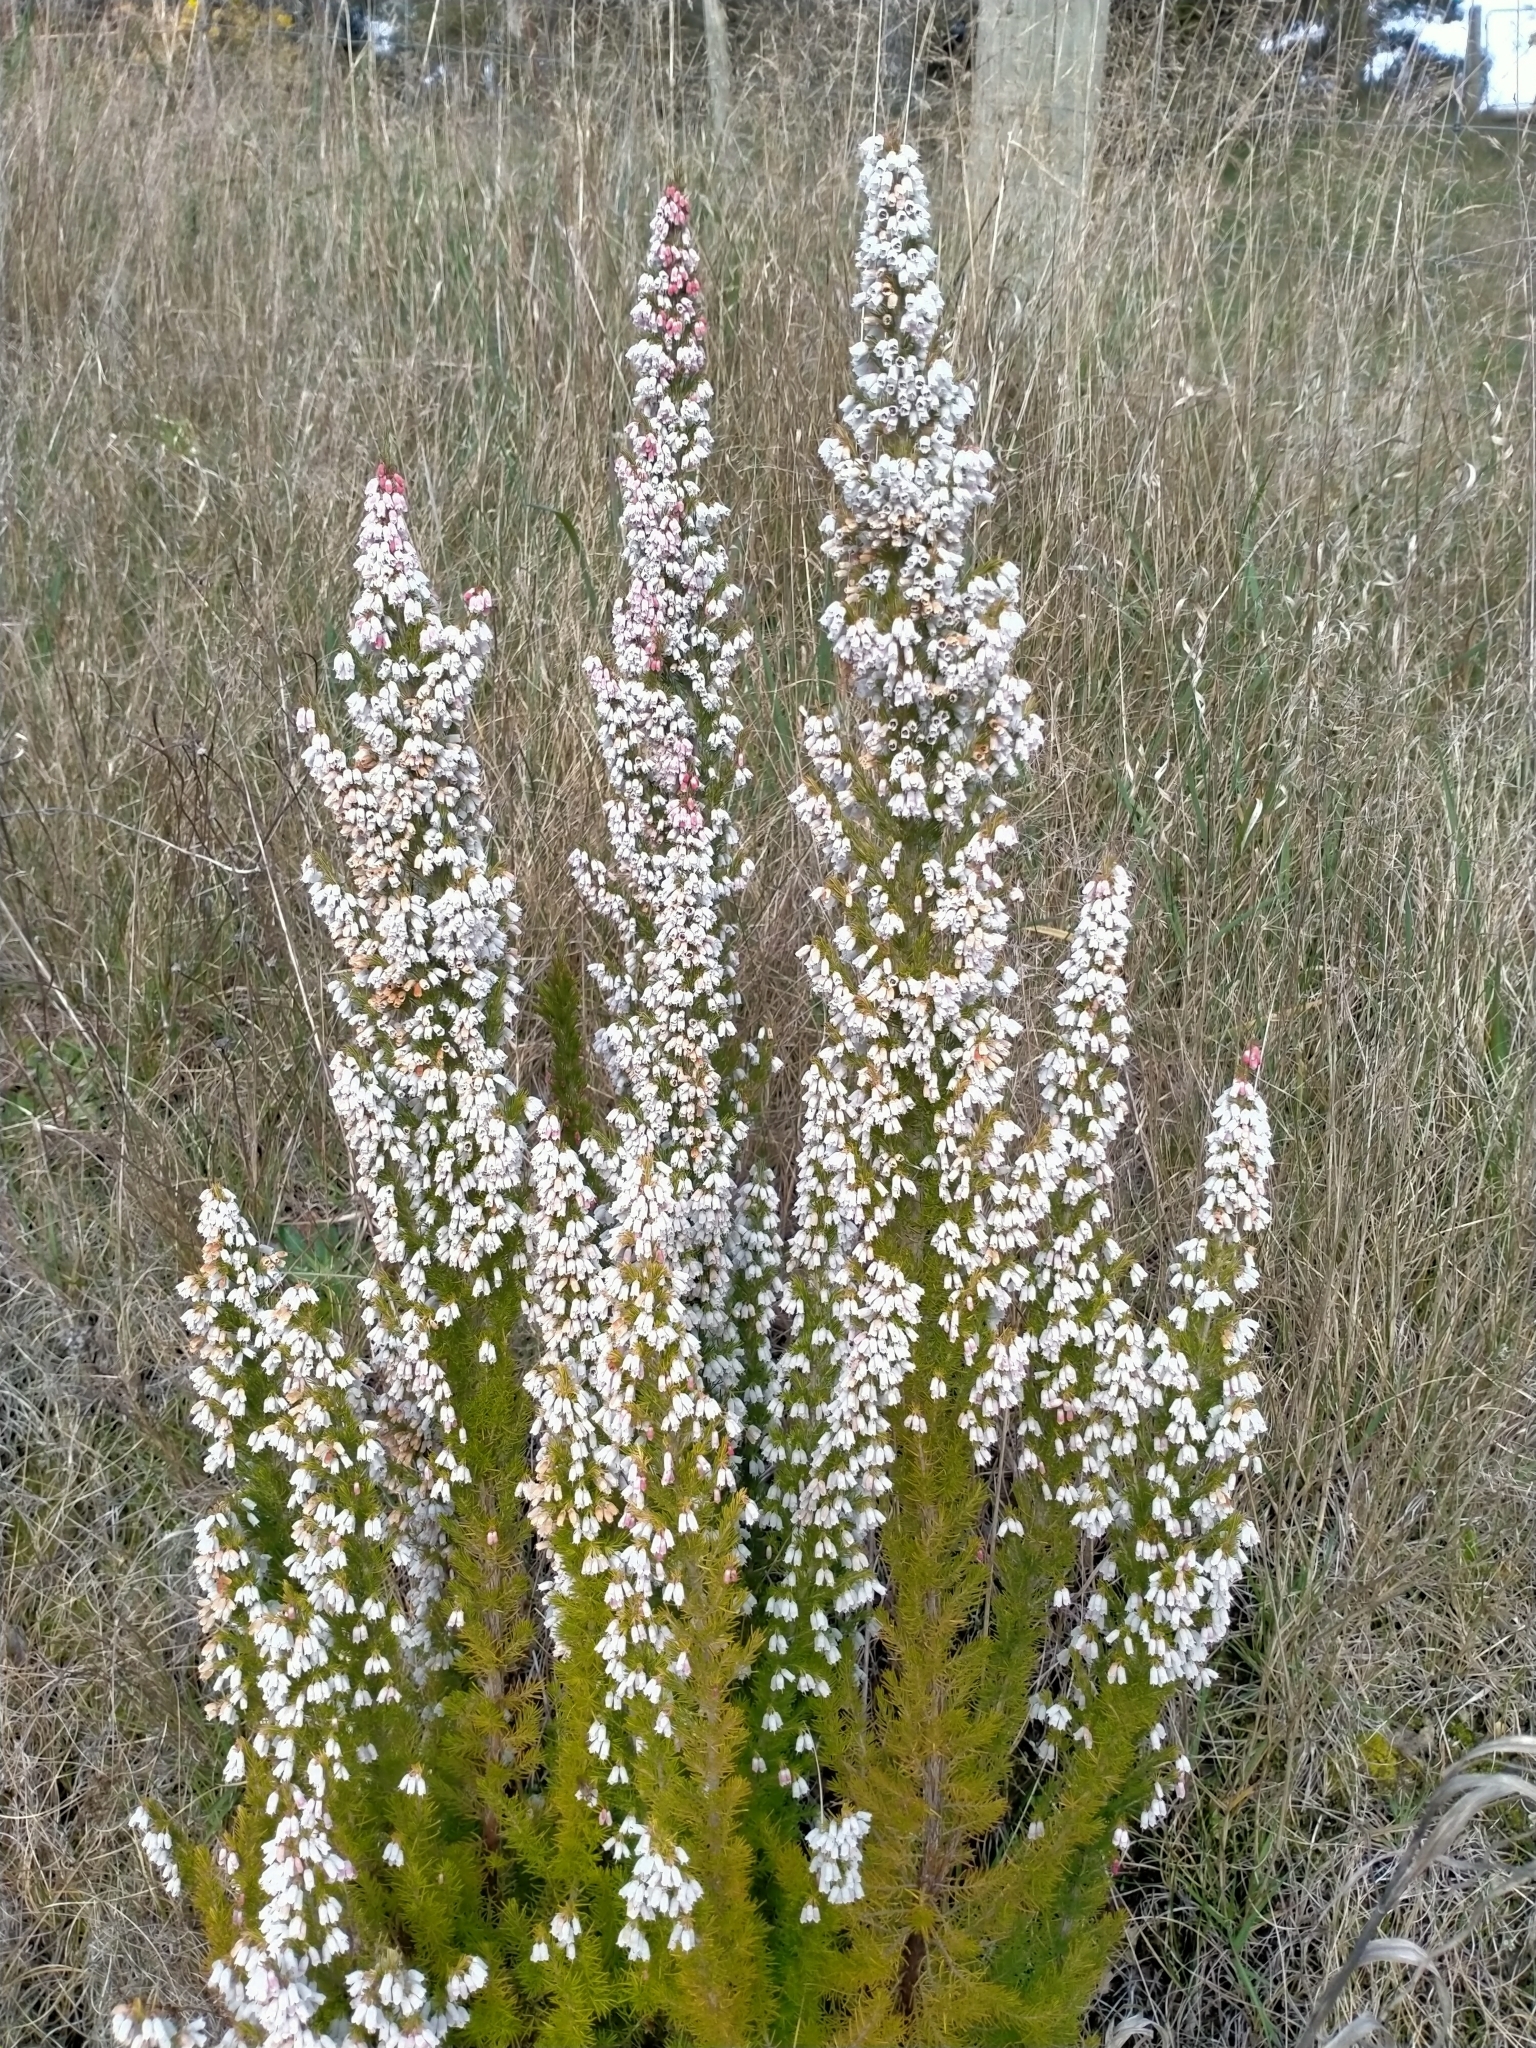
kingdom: Plantae
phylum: Tracheophyta
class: Magnoliopsida
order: Ericales
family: Ericaceae
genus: Erica
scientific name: Erica lusitanica
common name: Spanish heath
